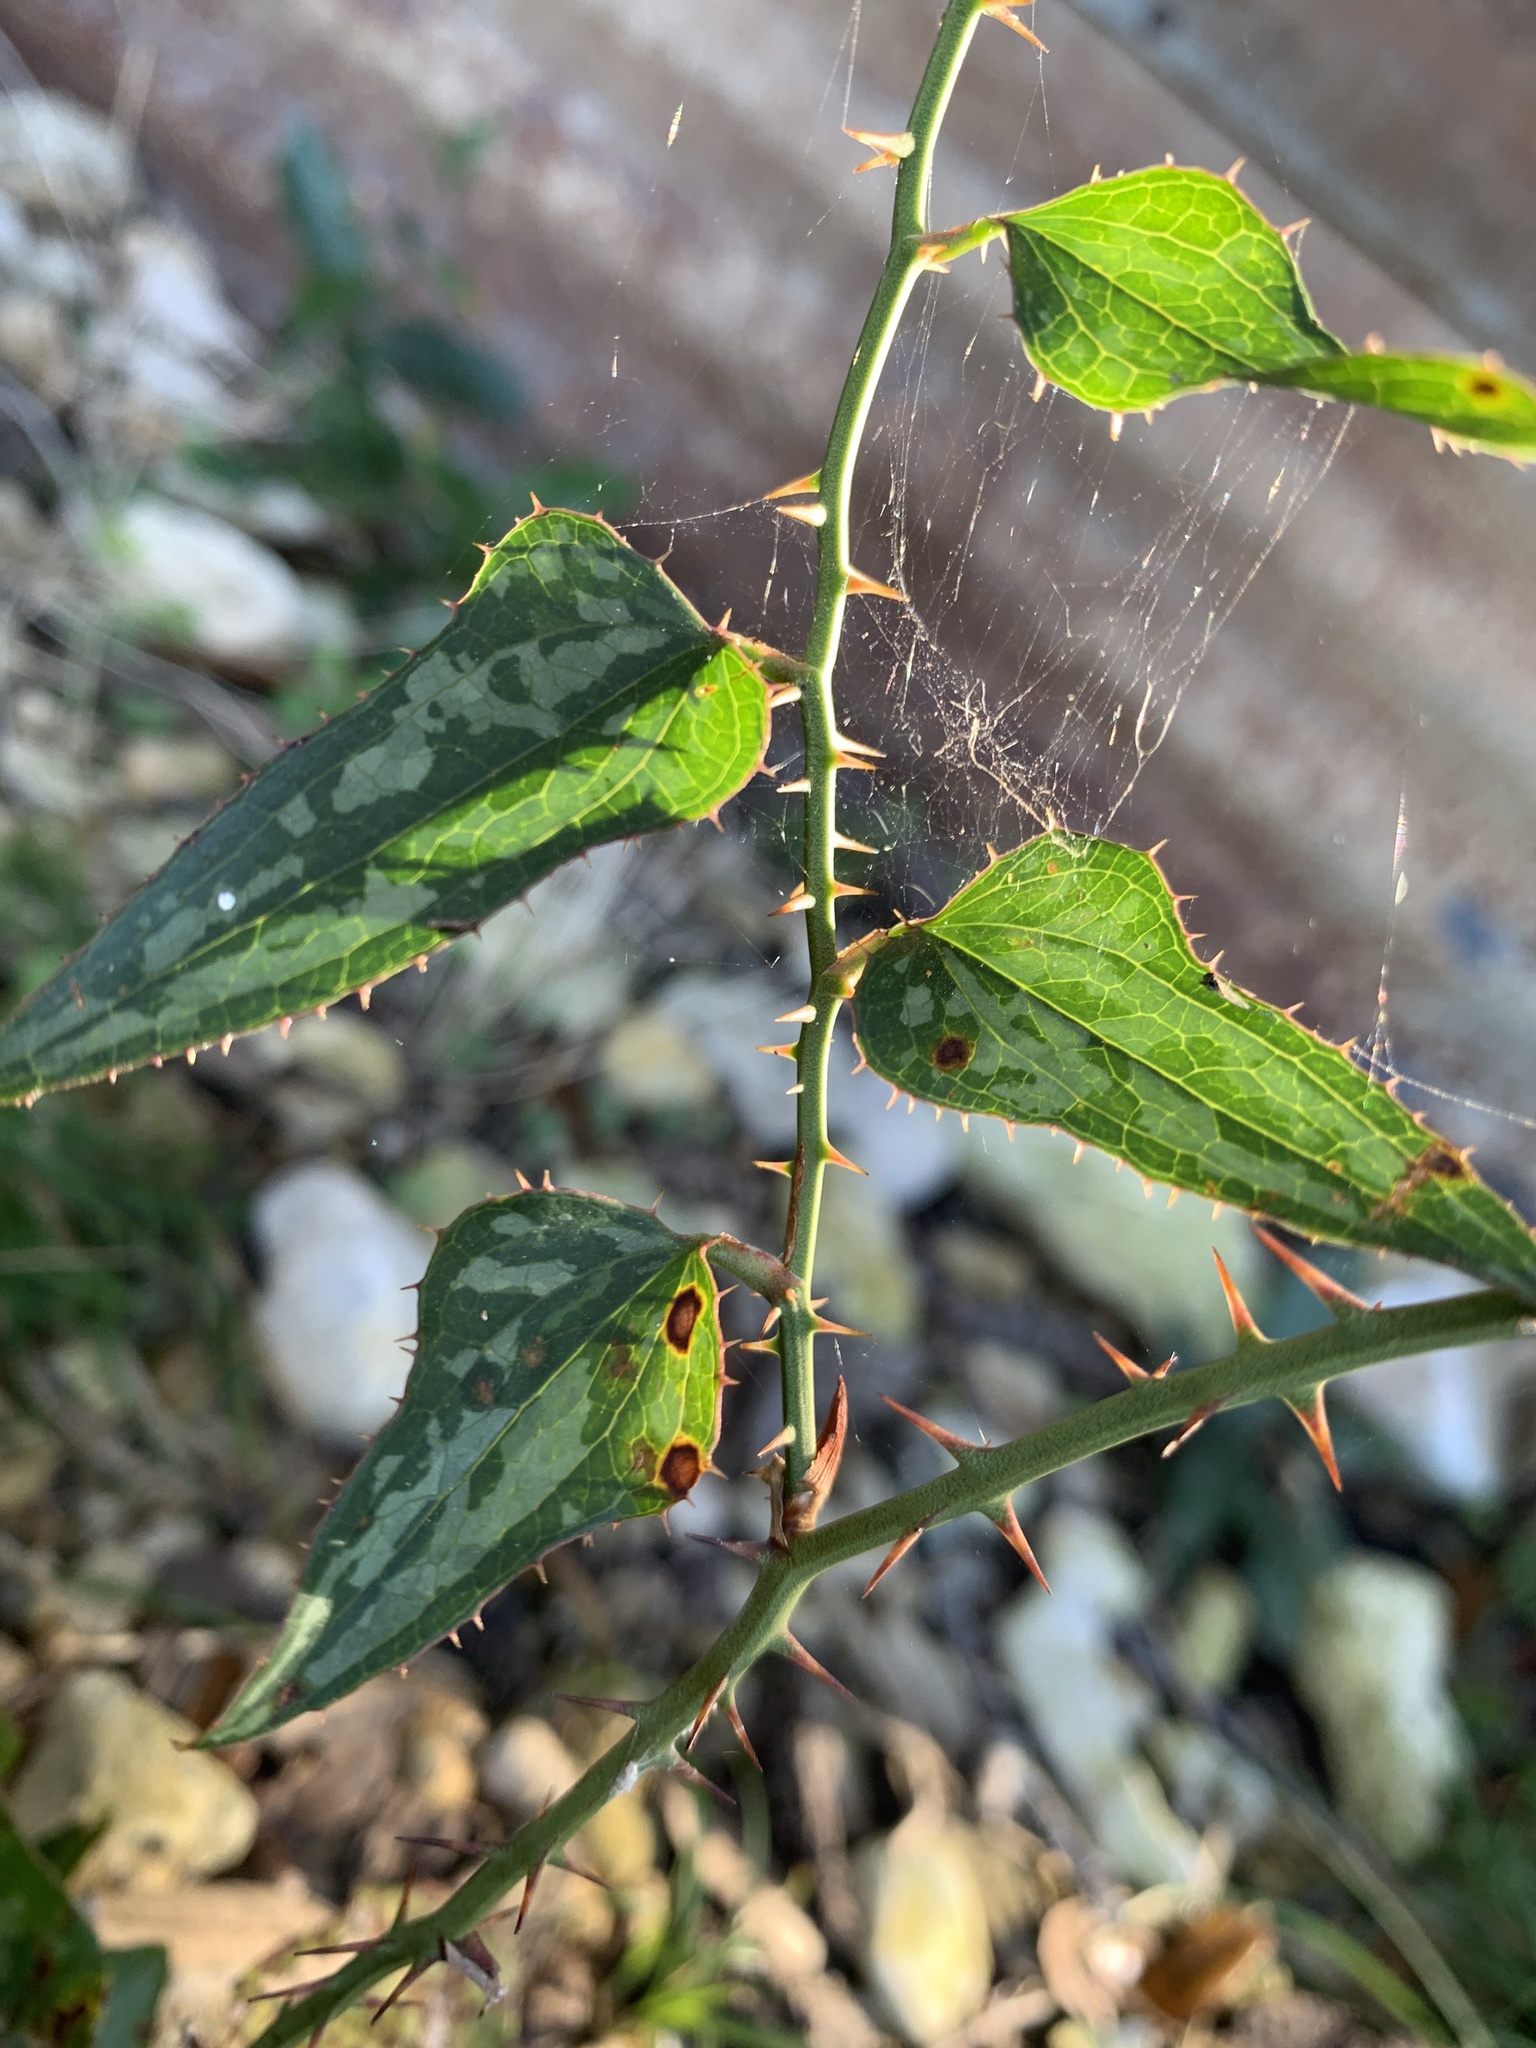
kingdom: Plantae
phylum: Tracheophyta
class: Liliopsida
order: Liliales
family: Smilacaceae
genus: Smilax
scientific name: Smilax bona-nox
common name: Catbrier
